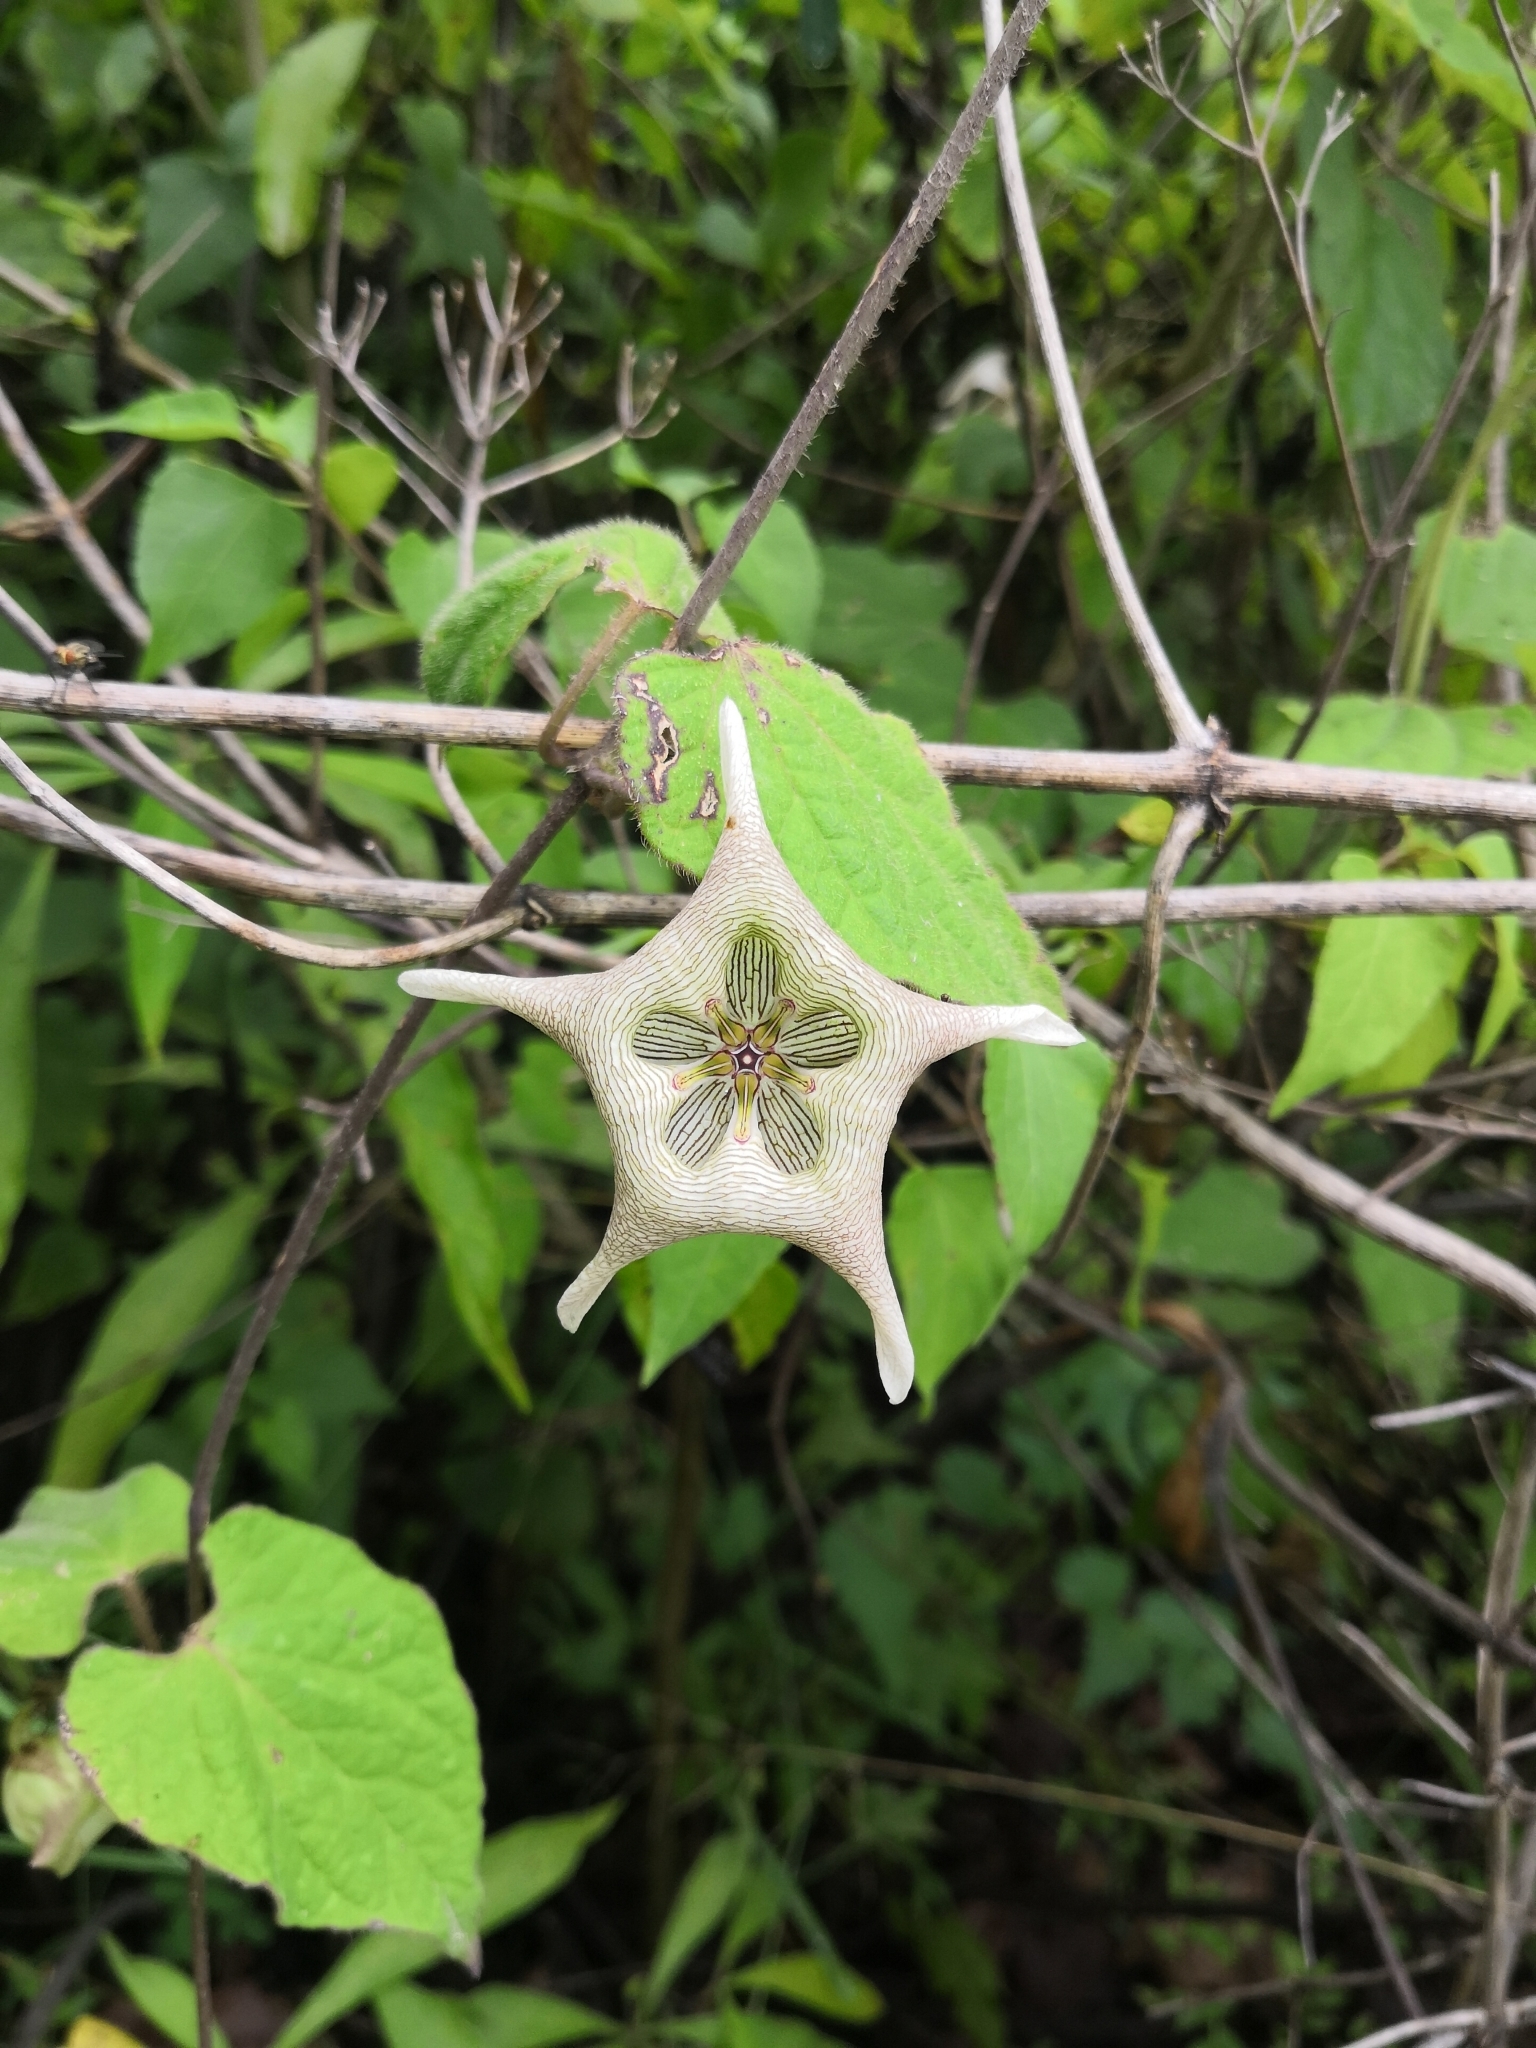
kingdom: Plantae
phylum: Tracheophyta
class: Magnoliopsida
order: Gentianales
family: Apocynaceae
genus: Dictyanthus
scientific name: Dictyanthus pavonii
